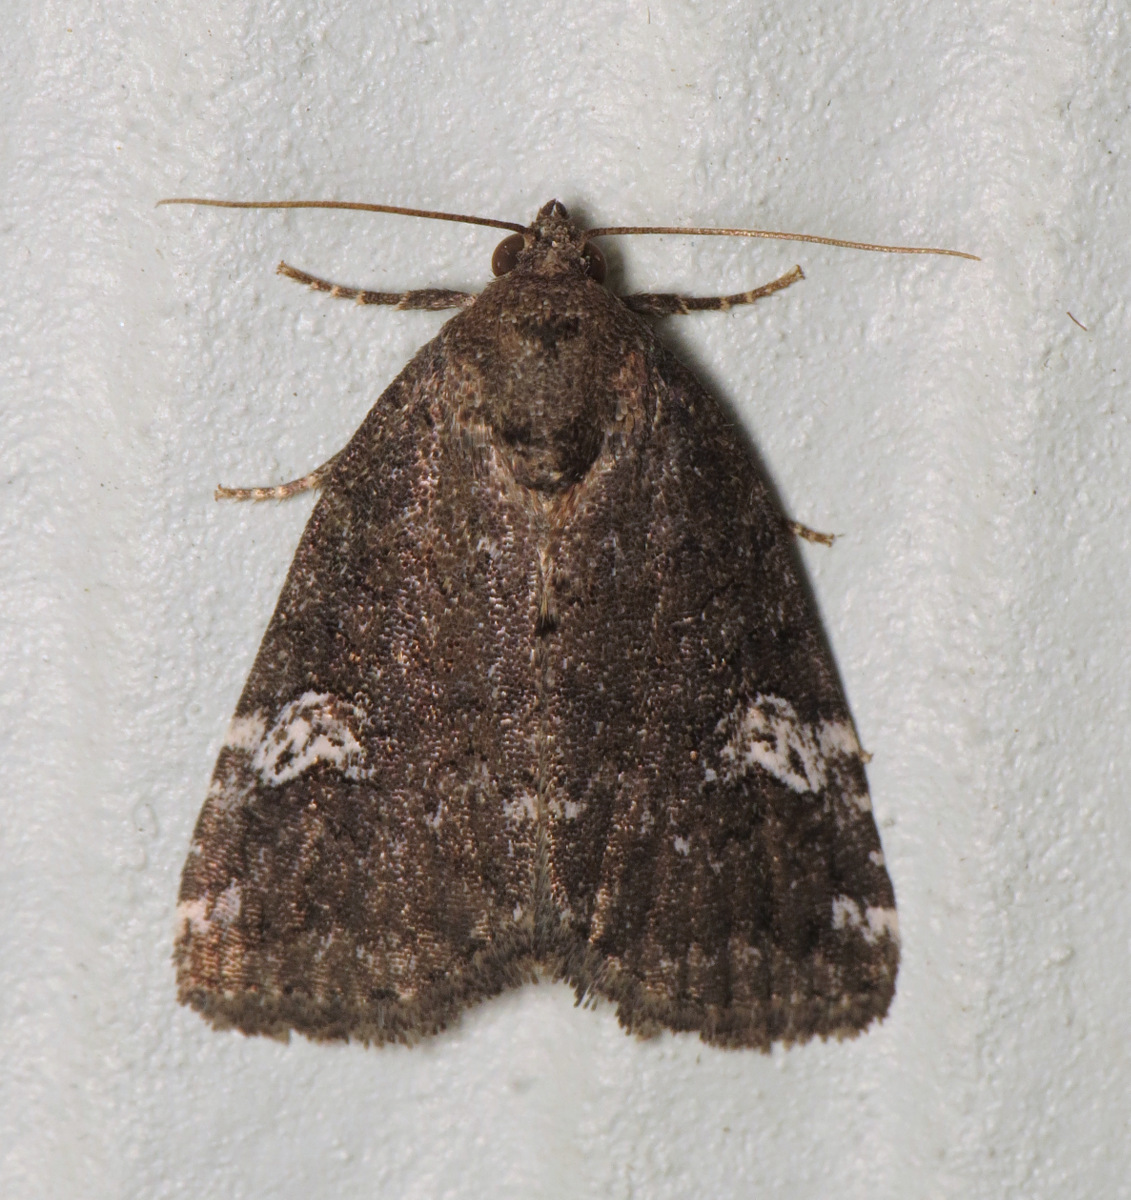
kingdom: Animalia
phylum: Arthropoda
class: Insecta
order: Lepidoptera
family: Noctuidae
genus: Anterastria
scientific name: Anterastria teratophora
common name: Gray marvel moth
